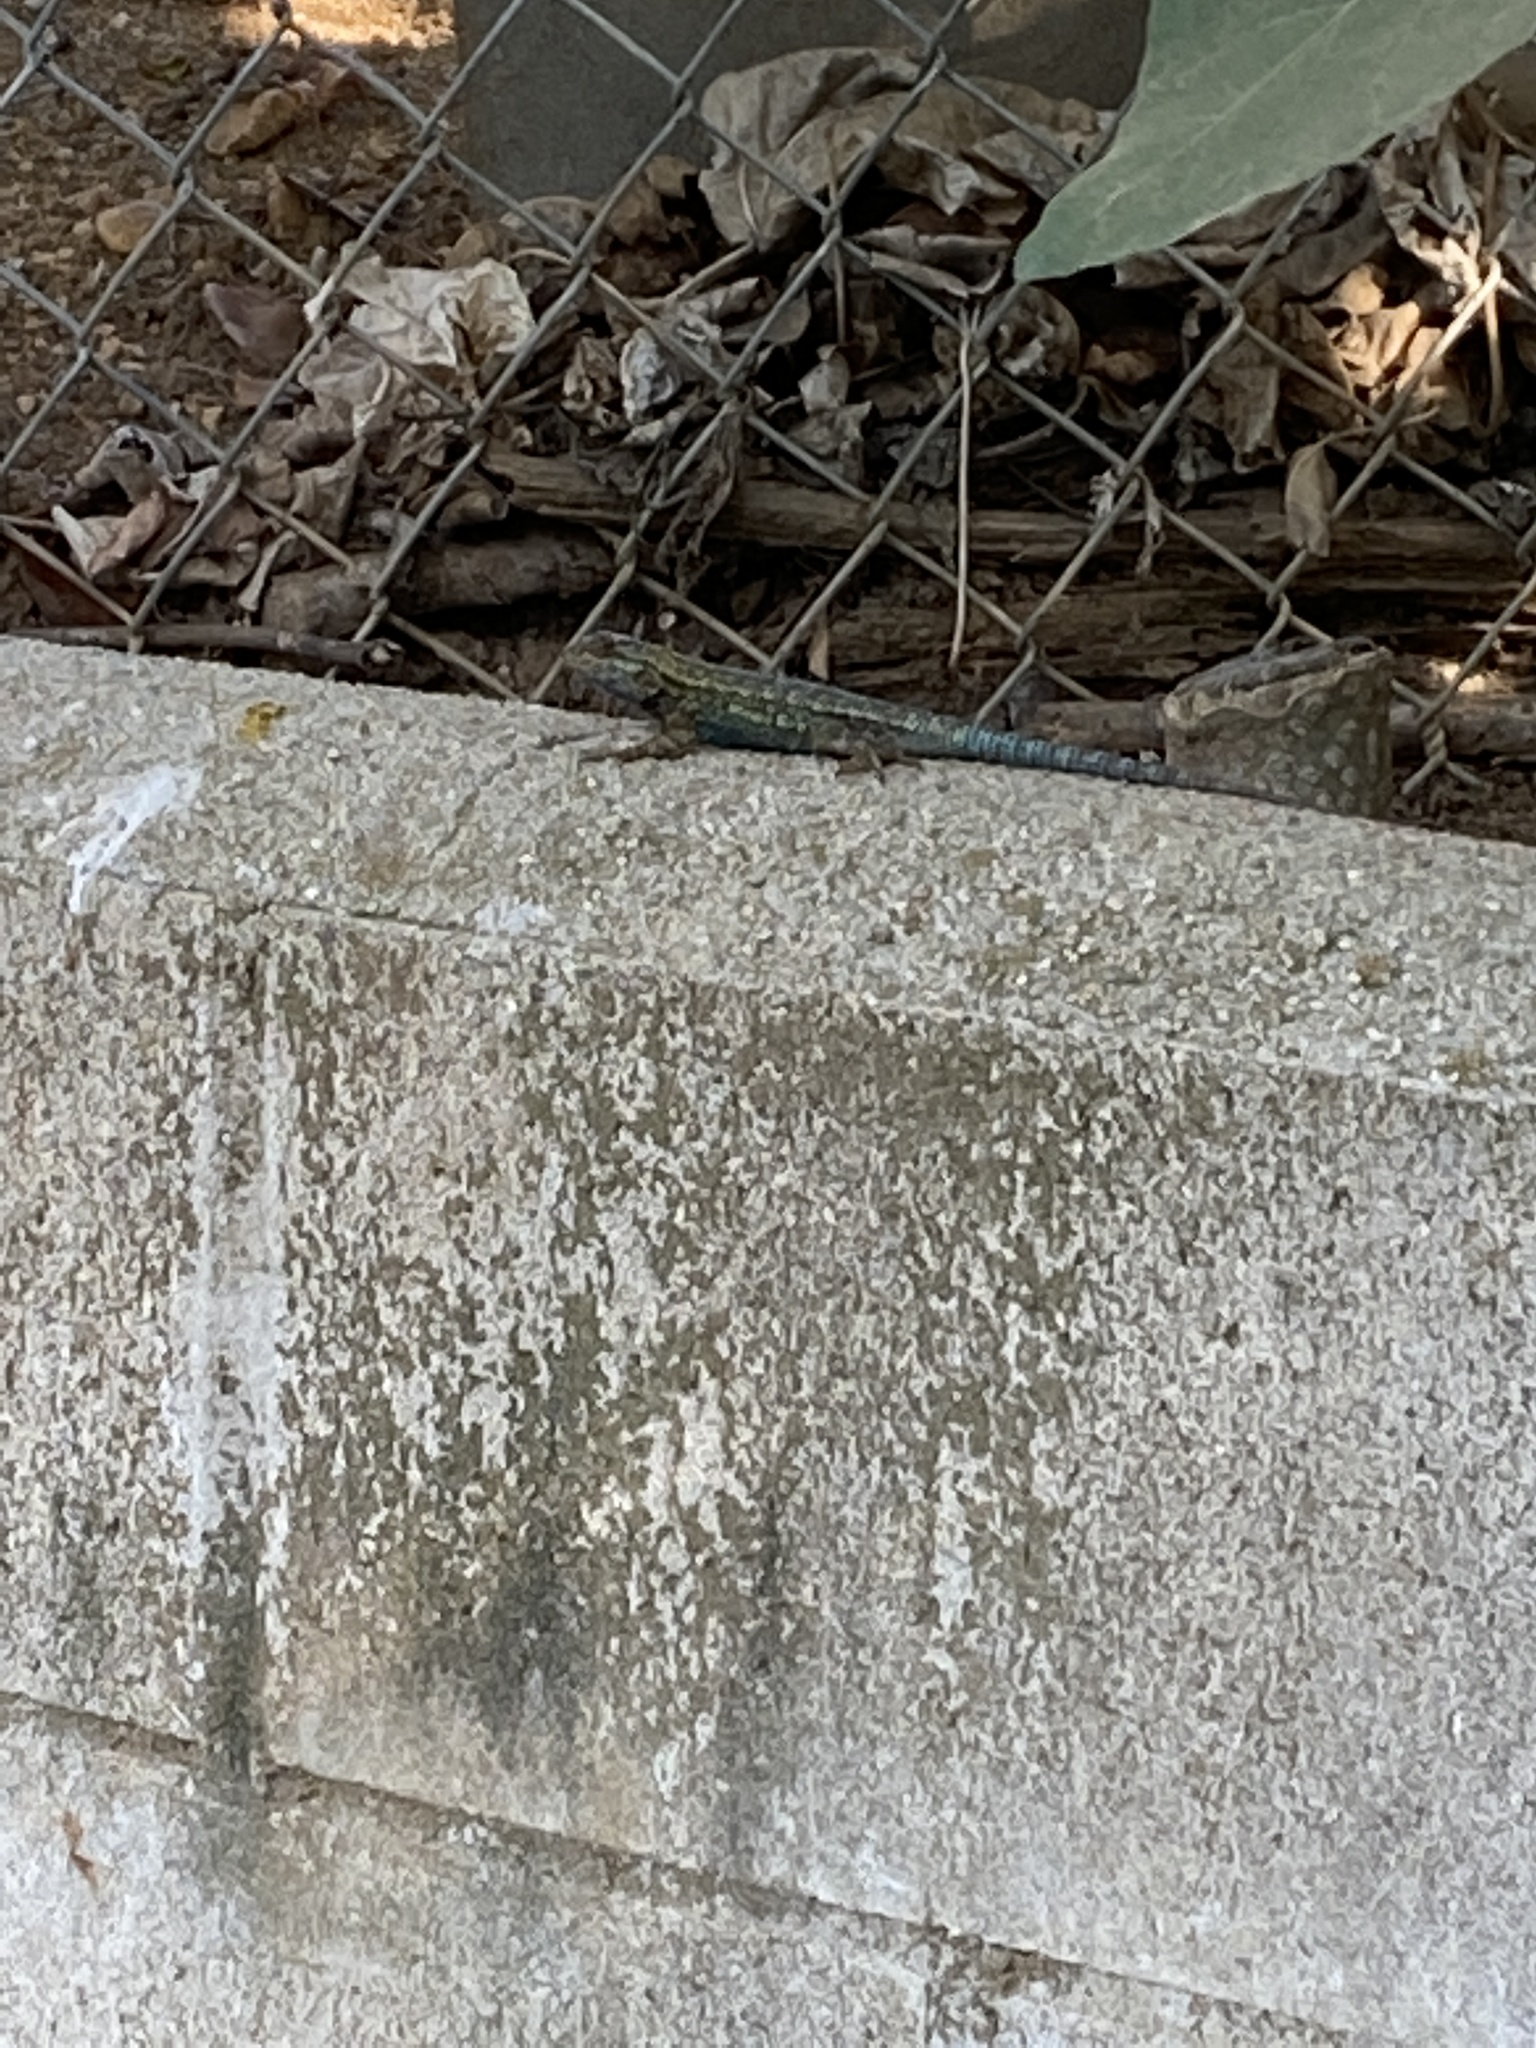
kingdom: Animalia
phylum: Chordata
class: Squamata
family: Phrynosomatidae
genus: Sceloporus
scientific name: Sceloporus occidentalis
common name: Western fence lizard
